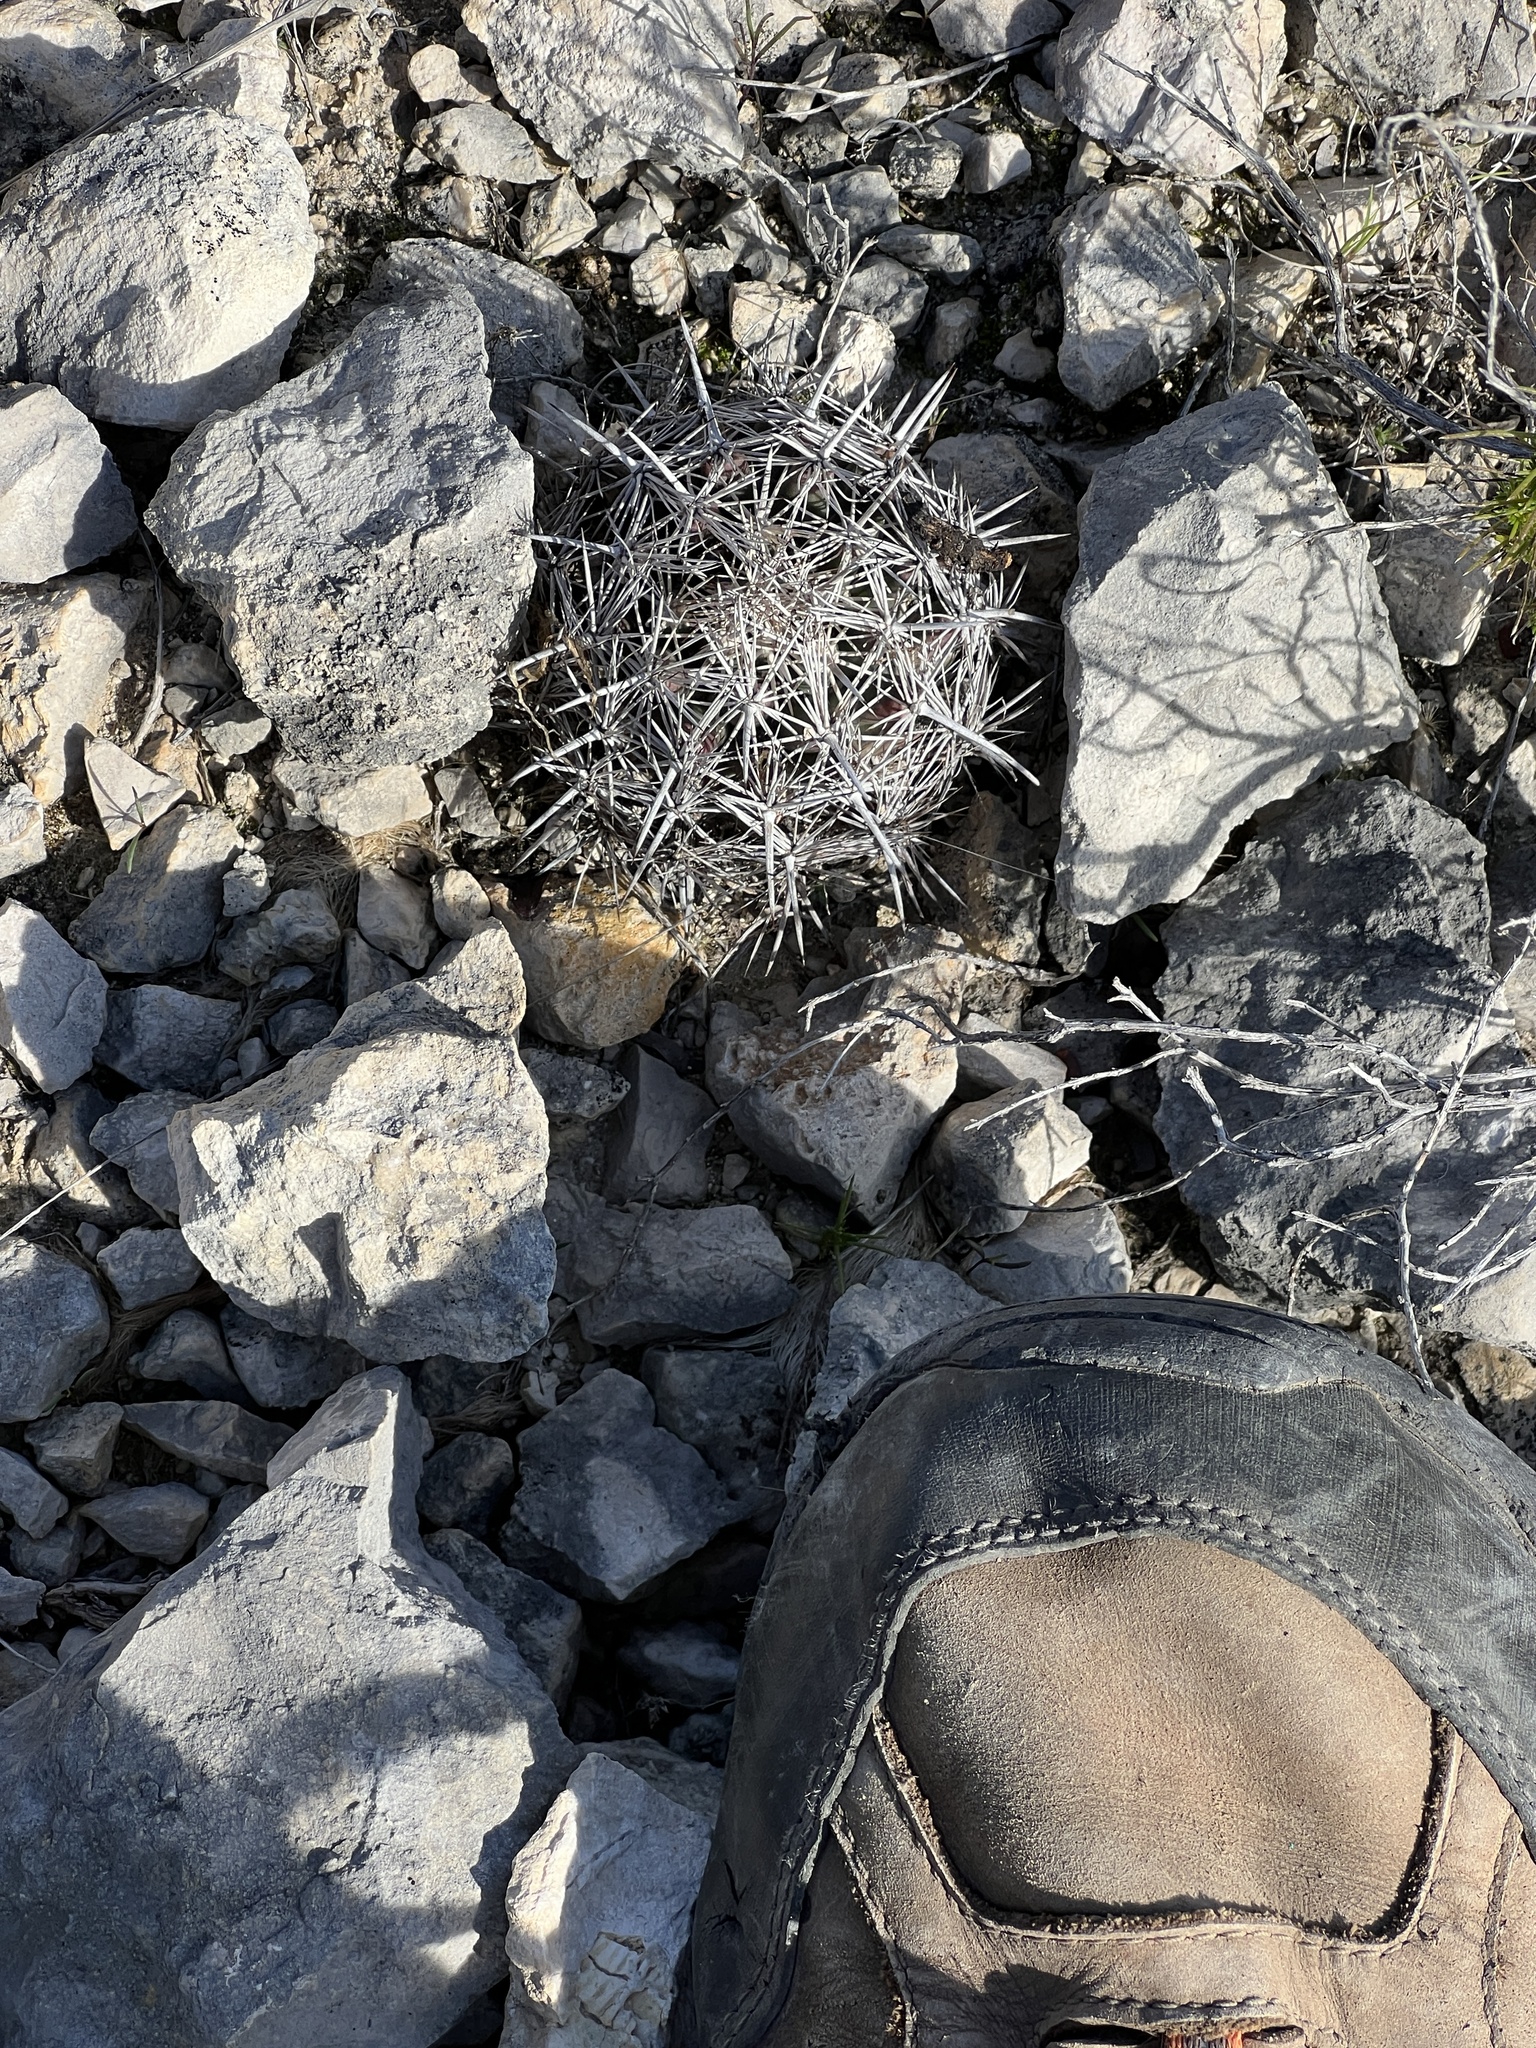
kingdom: Plantae
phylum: Tracheophyta
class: Magnoliopsida
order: Caryophyllales
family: Cactaceae
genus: Coryphantha
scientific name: Coryphantha echinus
